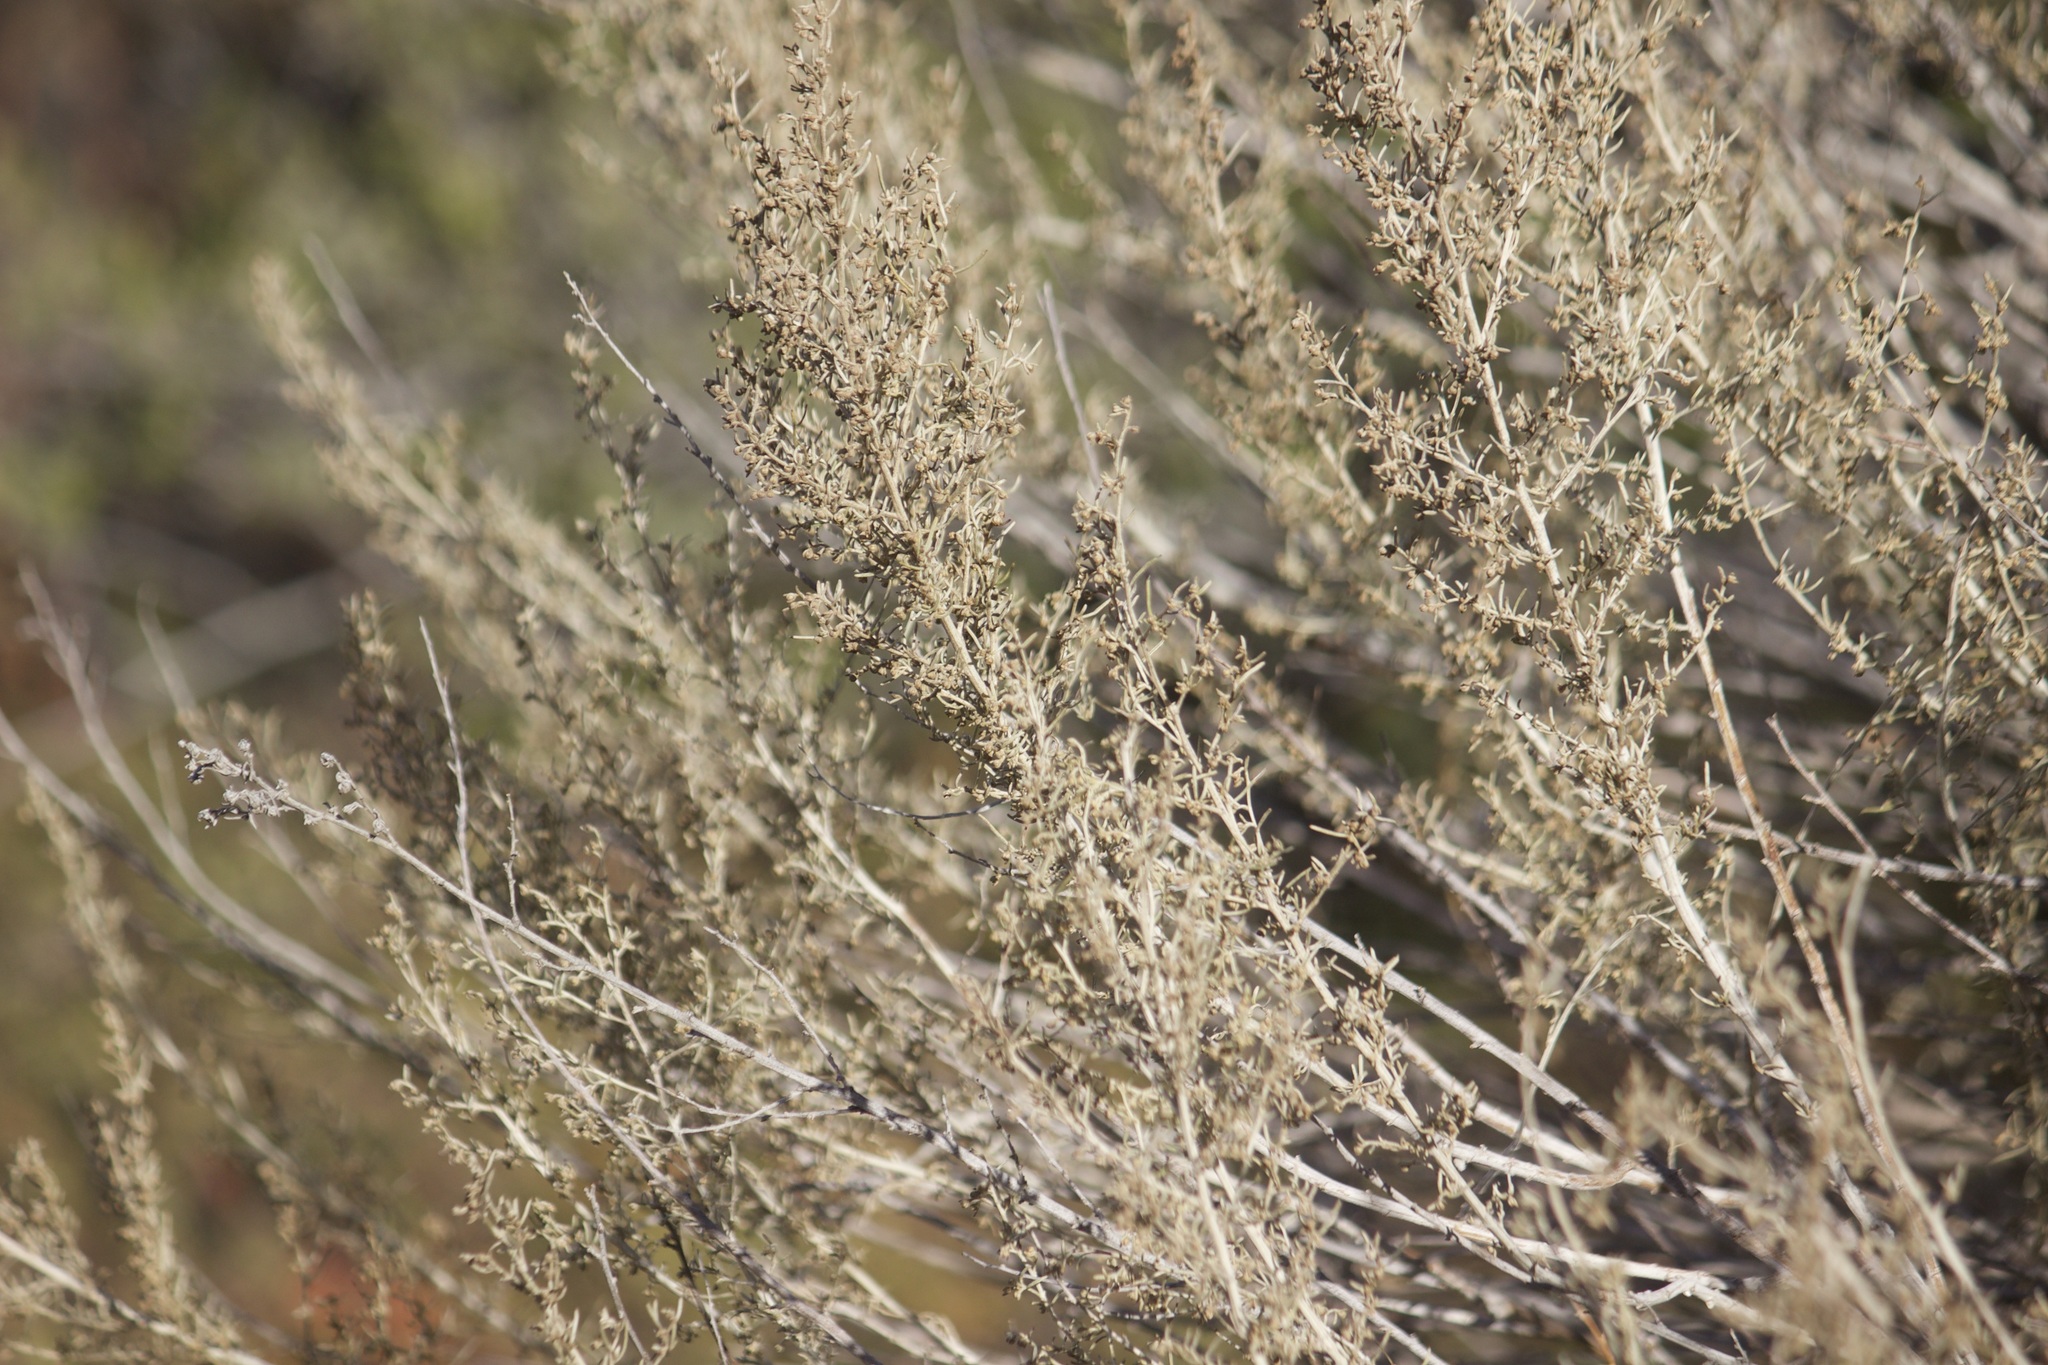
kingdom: Plantae
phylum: Tracheophyta
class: Magnoliopsida
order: Asterales
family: Asteraceae
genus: Artemisia
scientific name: Artemisia californica
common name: California sagebrush
